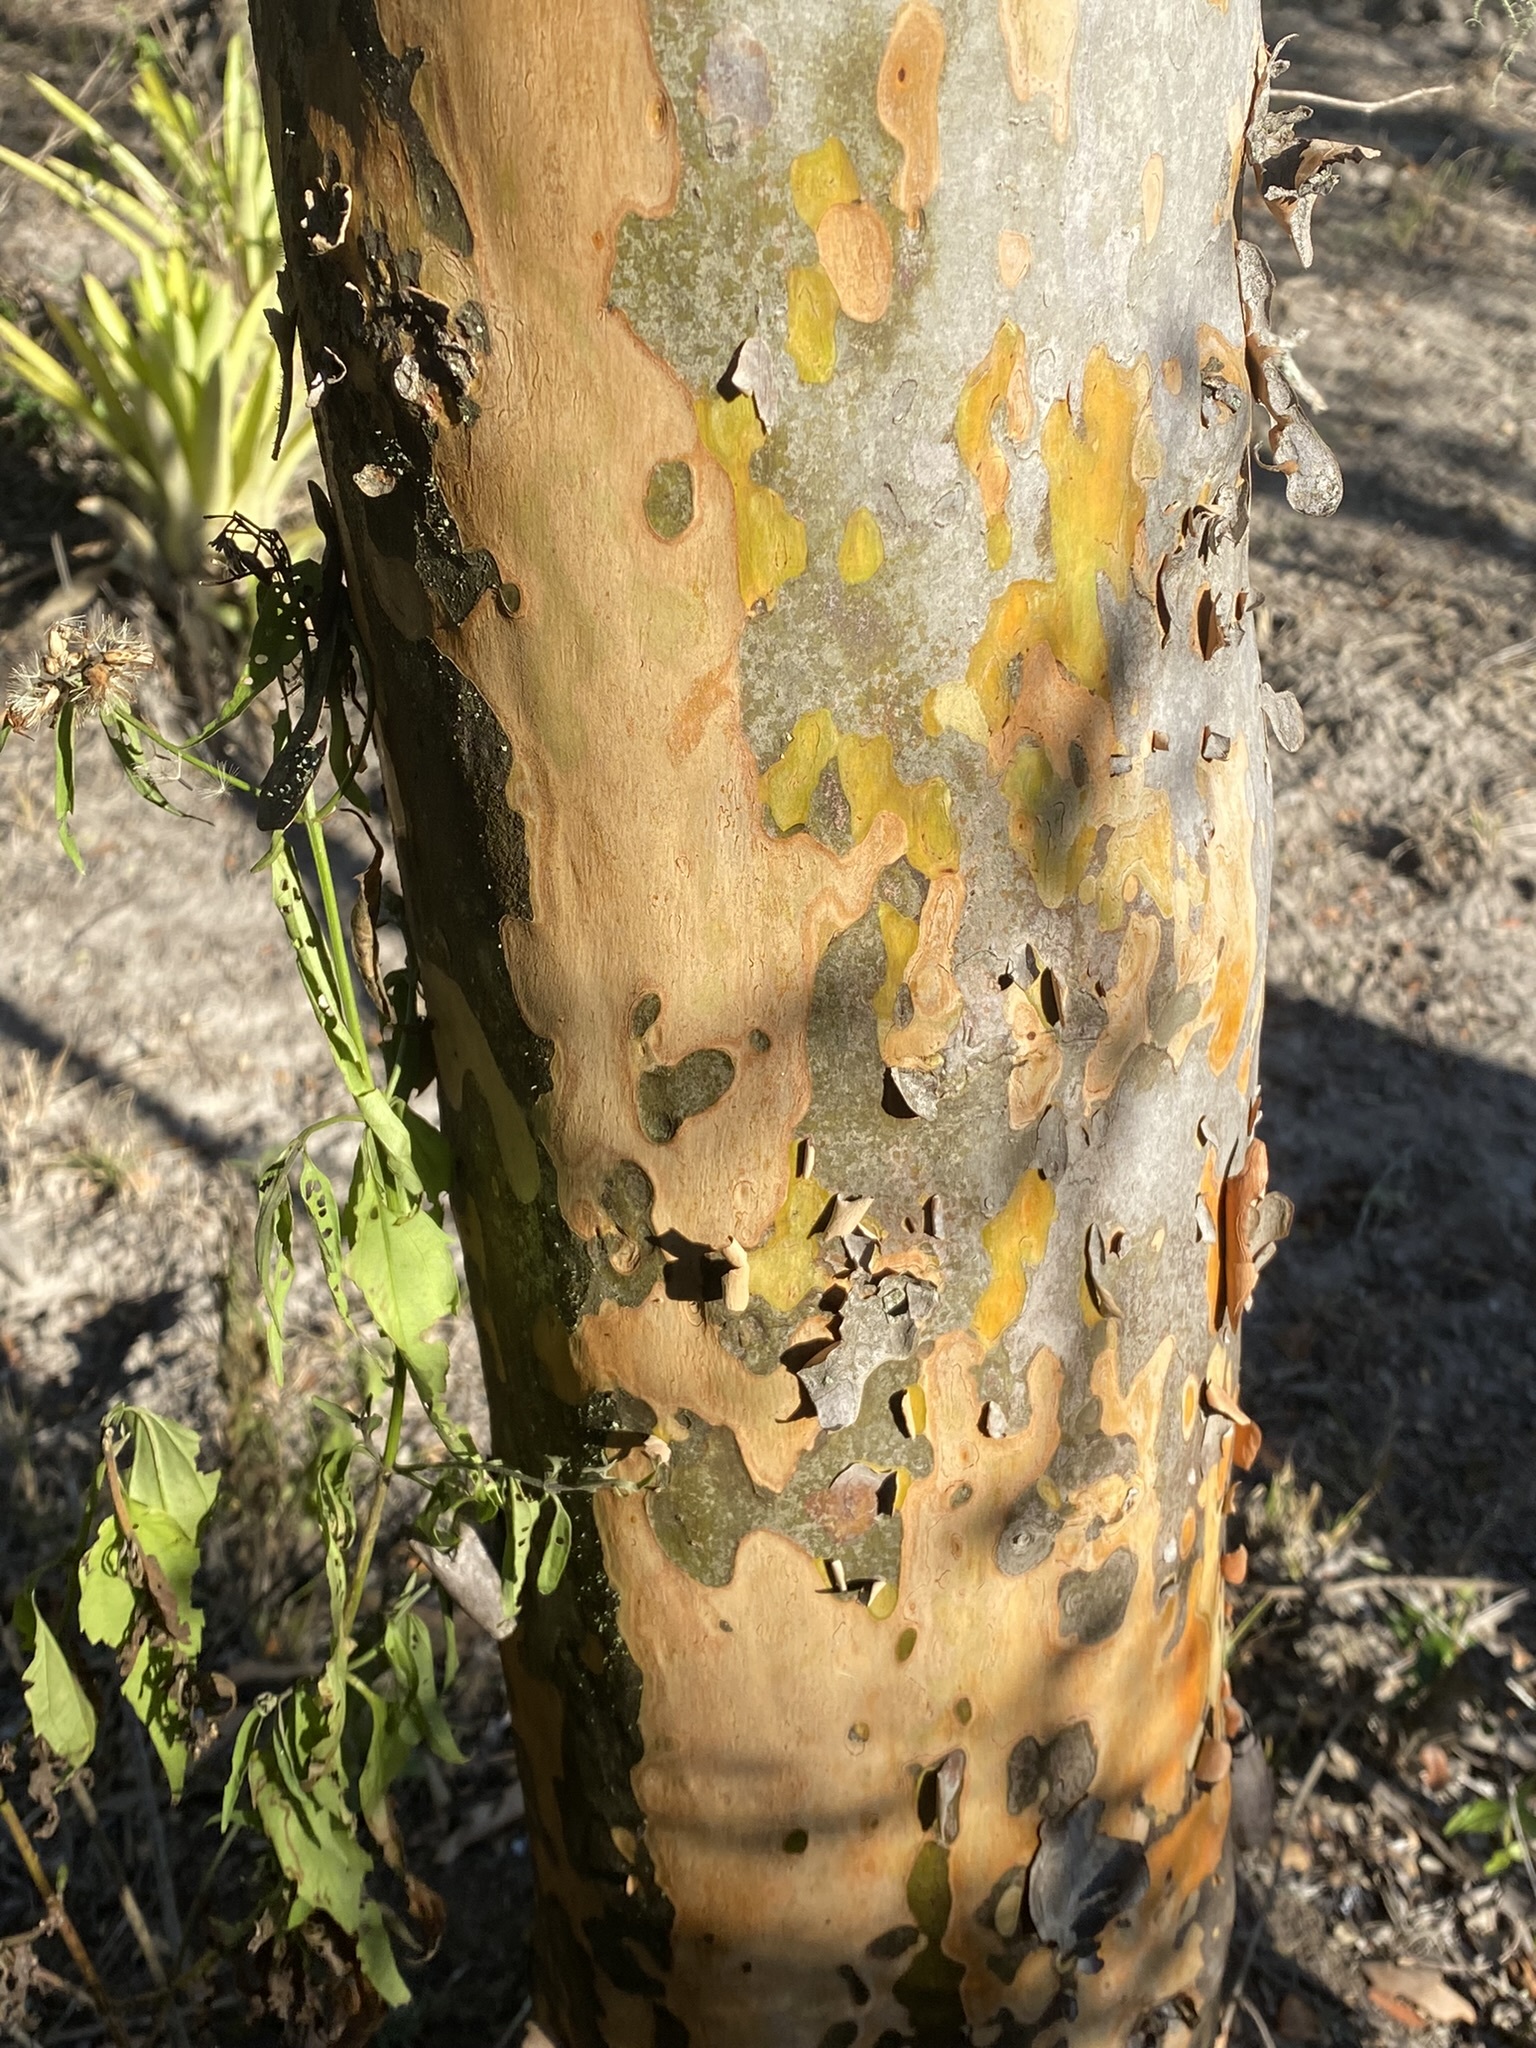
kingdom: Plantae
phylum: Tracheophyta
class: Magnoliopsida
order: Myrtales
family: Myrtaceae
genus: Myrcianthes
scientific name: Myrcianthes cisplatensis
